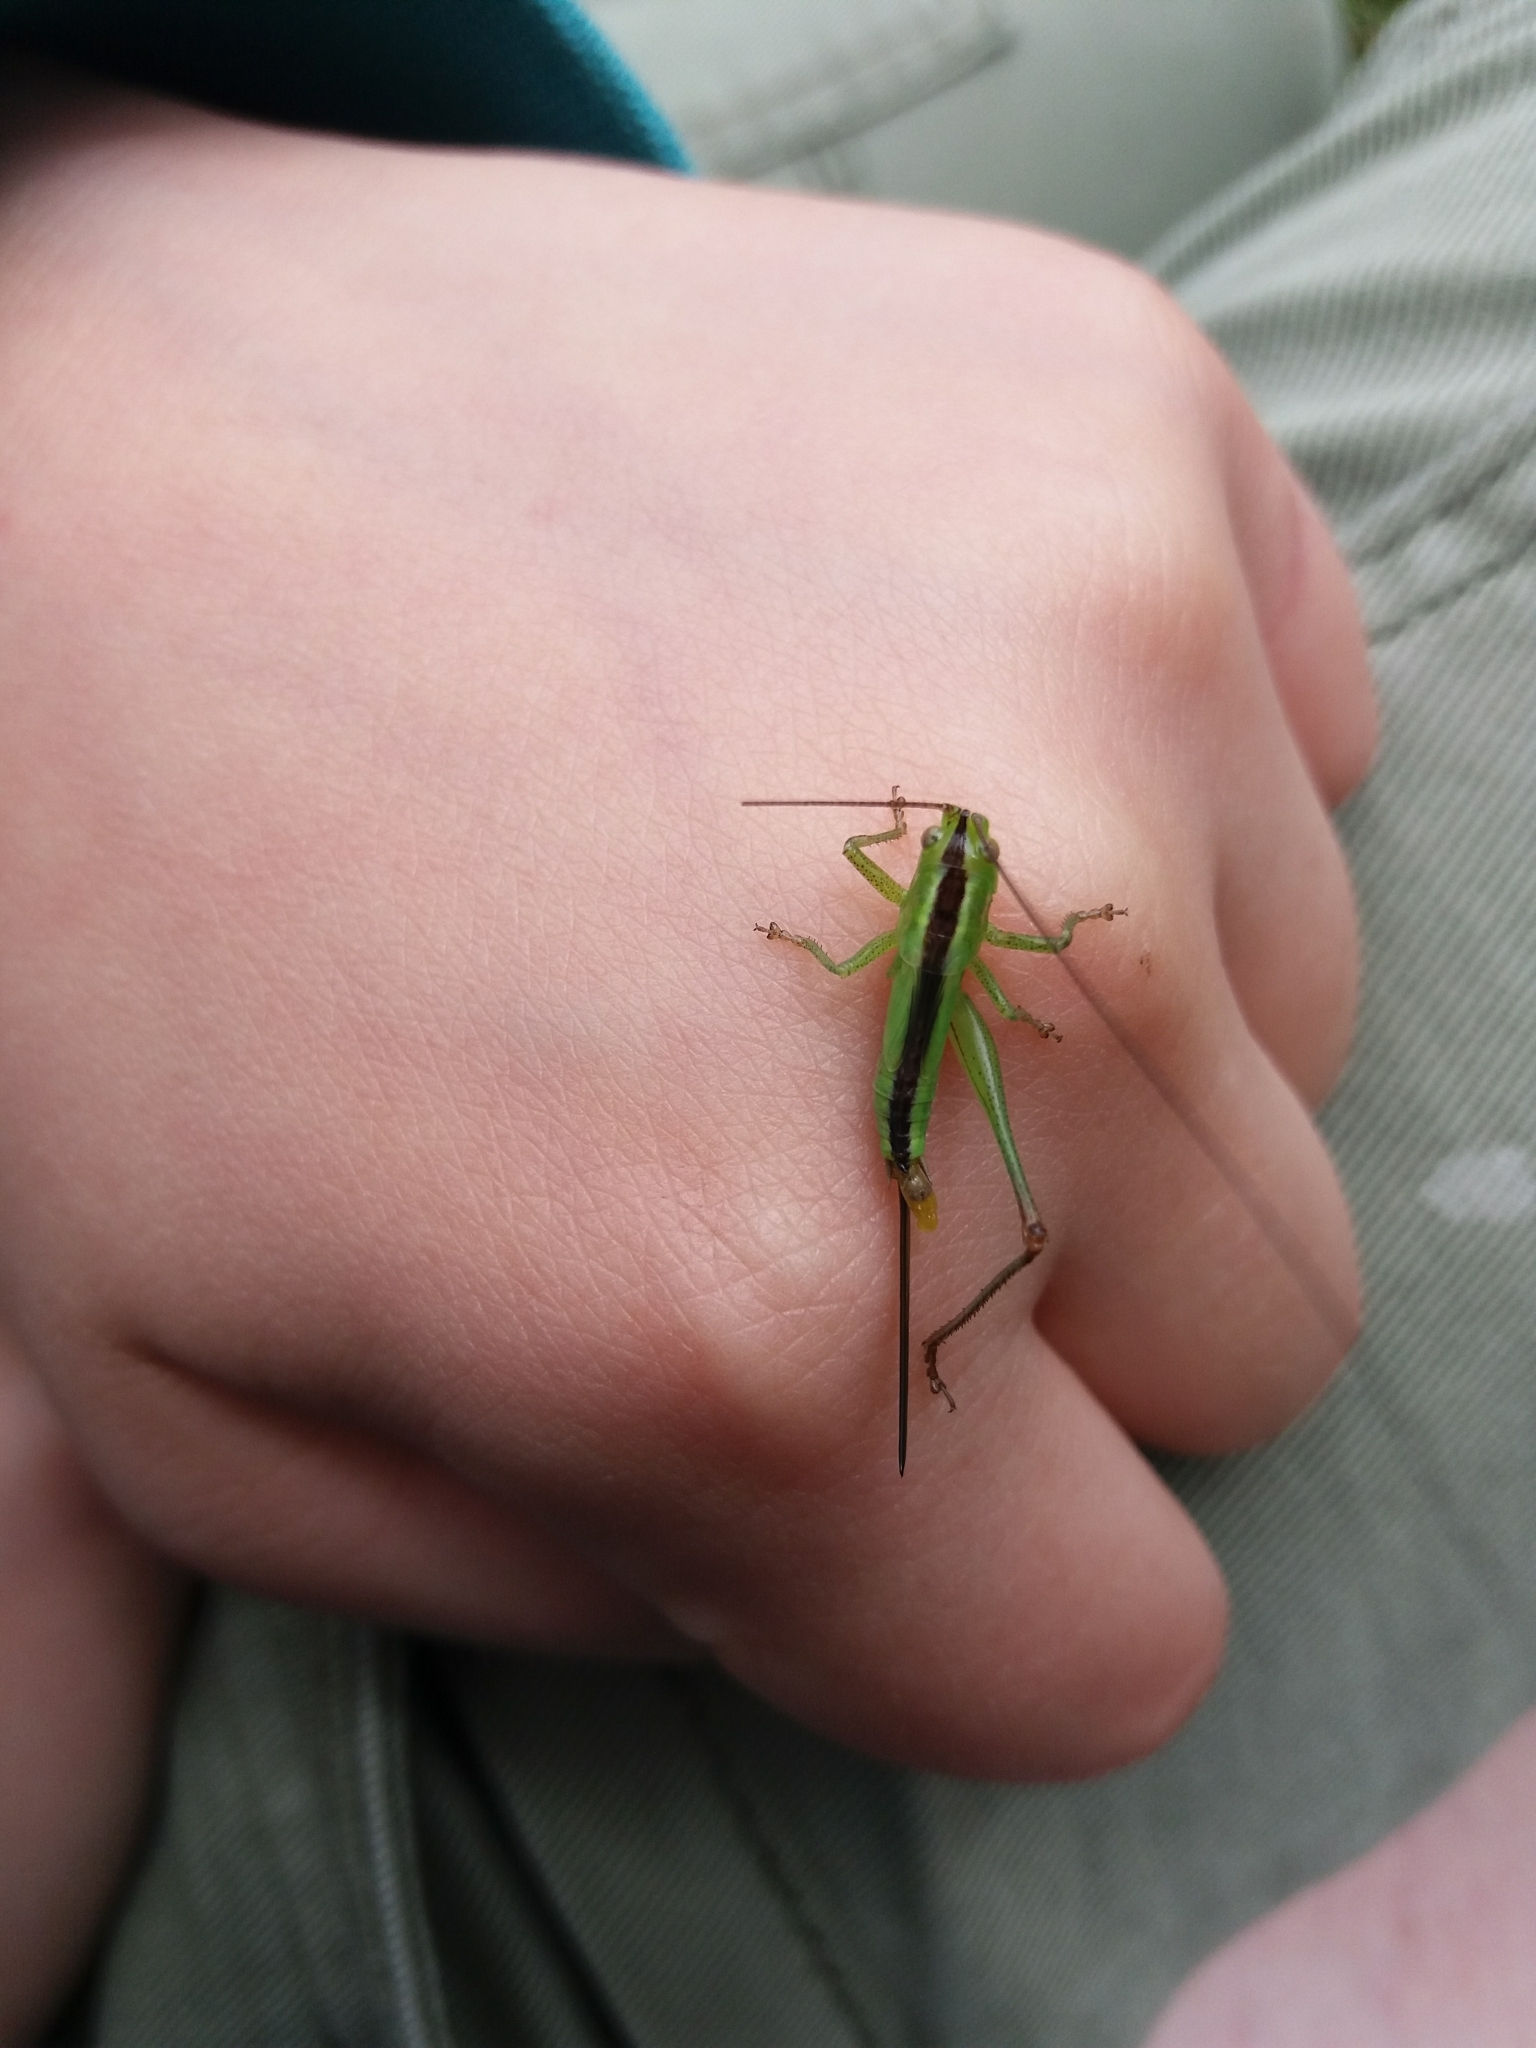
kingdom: Animalia
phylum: Arthropoda
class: Insecta
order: Orthoptera
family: Tettigoniidae
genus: Conocephalus
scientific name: Conocephalus fuscus
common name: Long-winged conehead
